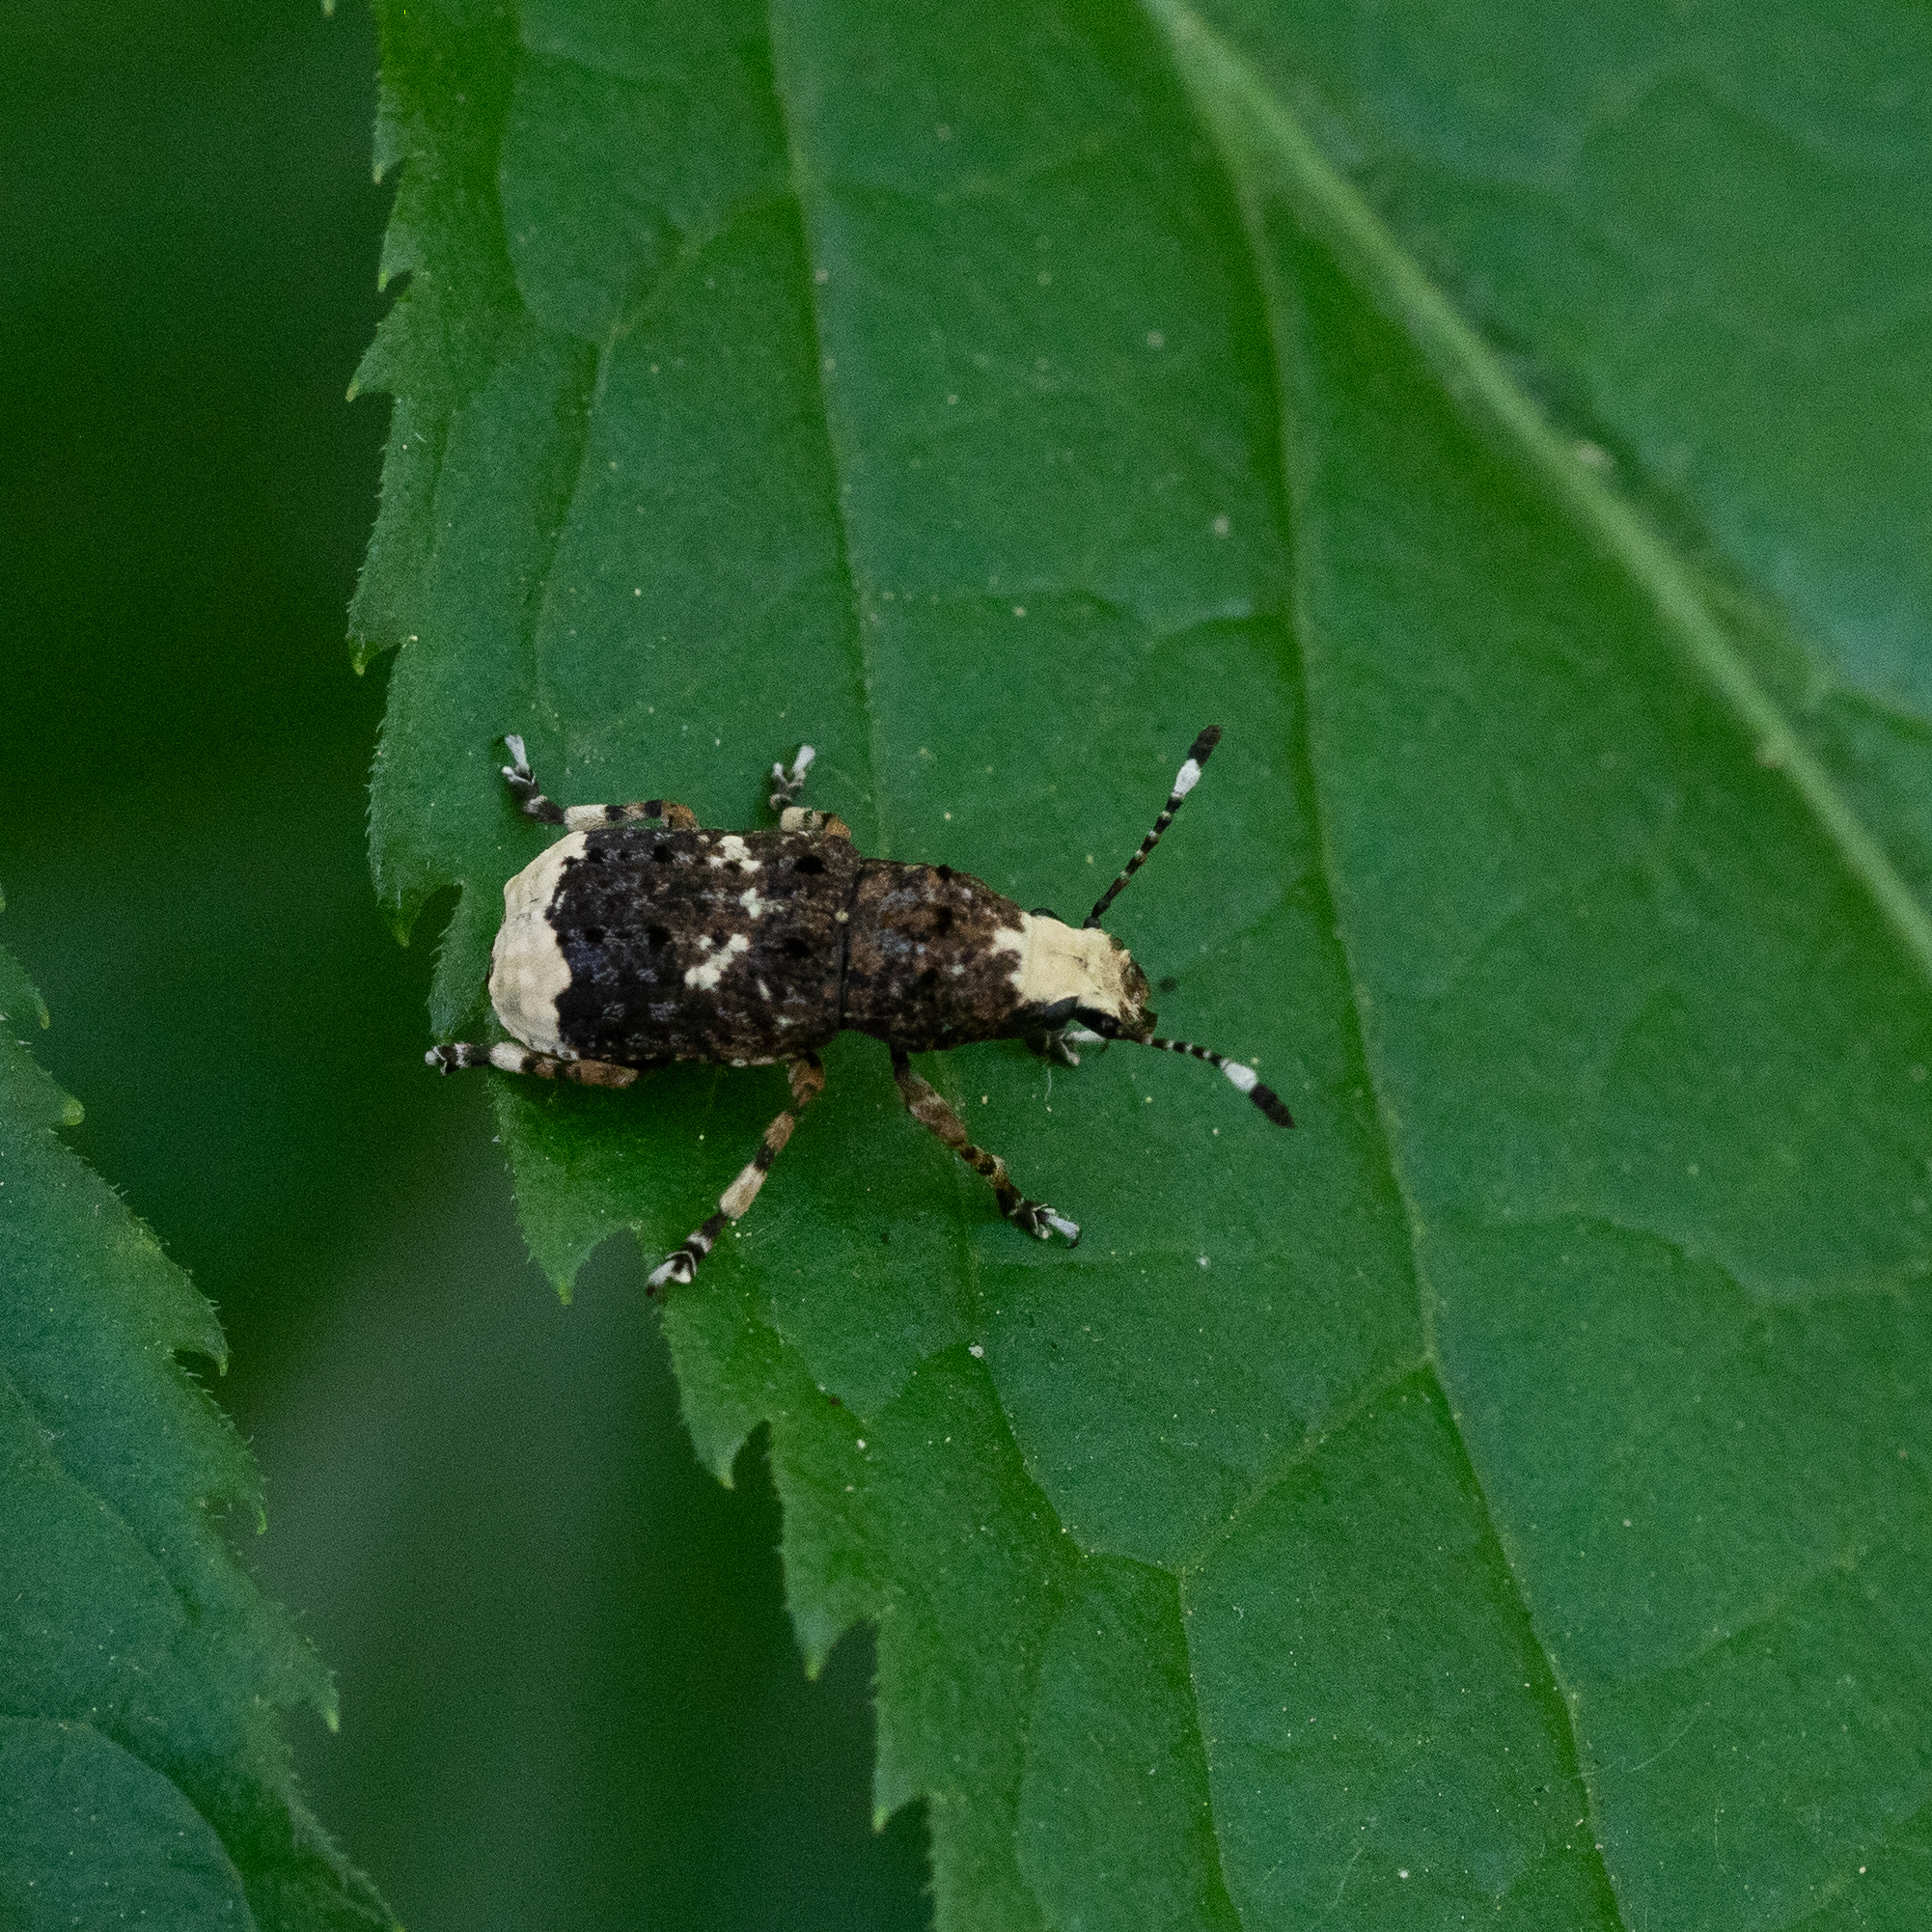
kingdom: Animalia
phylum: Arthropoda
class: Insecta
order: Coleoptera
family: Anthribidae
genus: Platystomos
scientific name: Platystomos albinus
